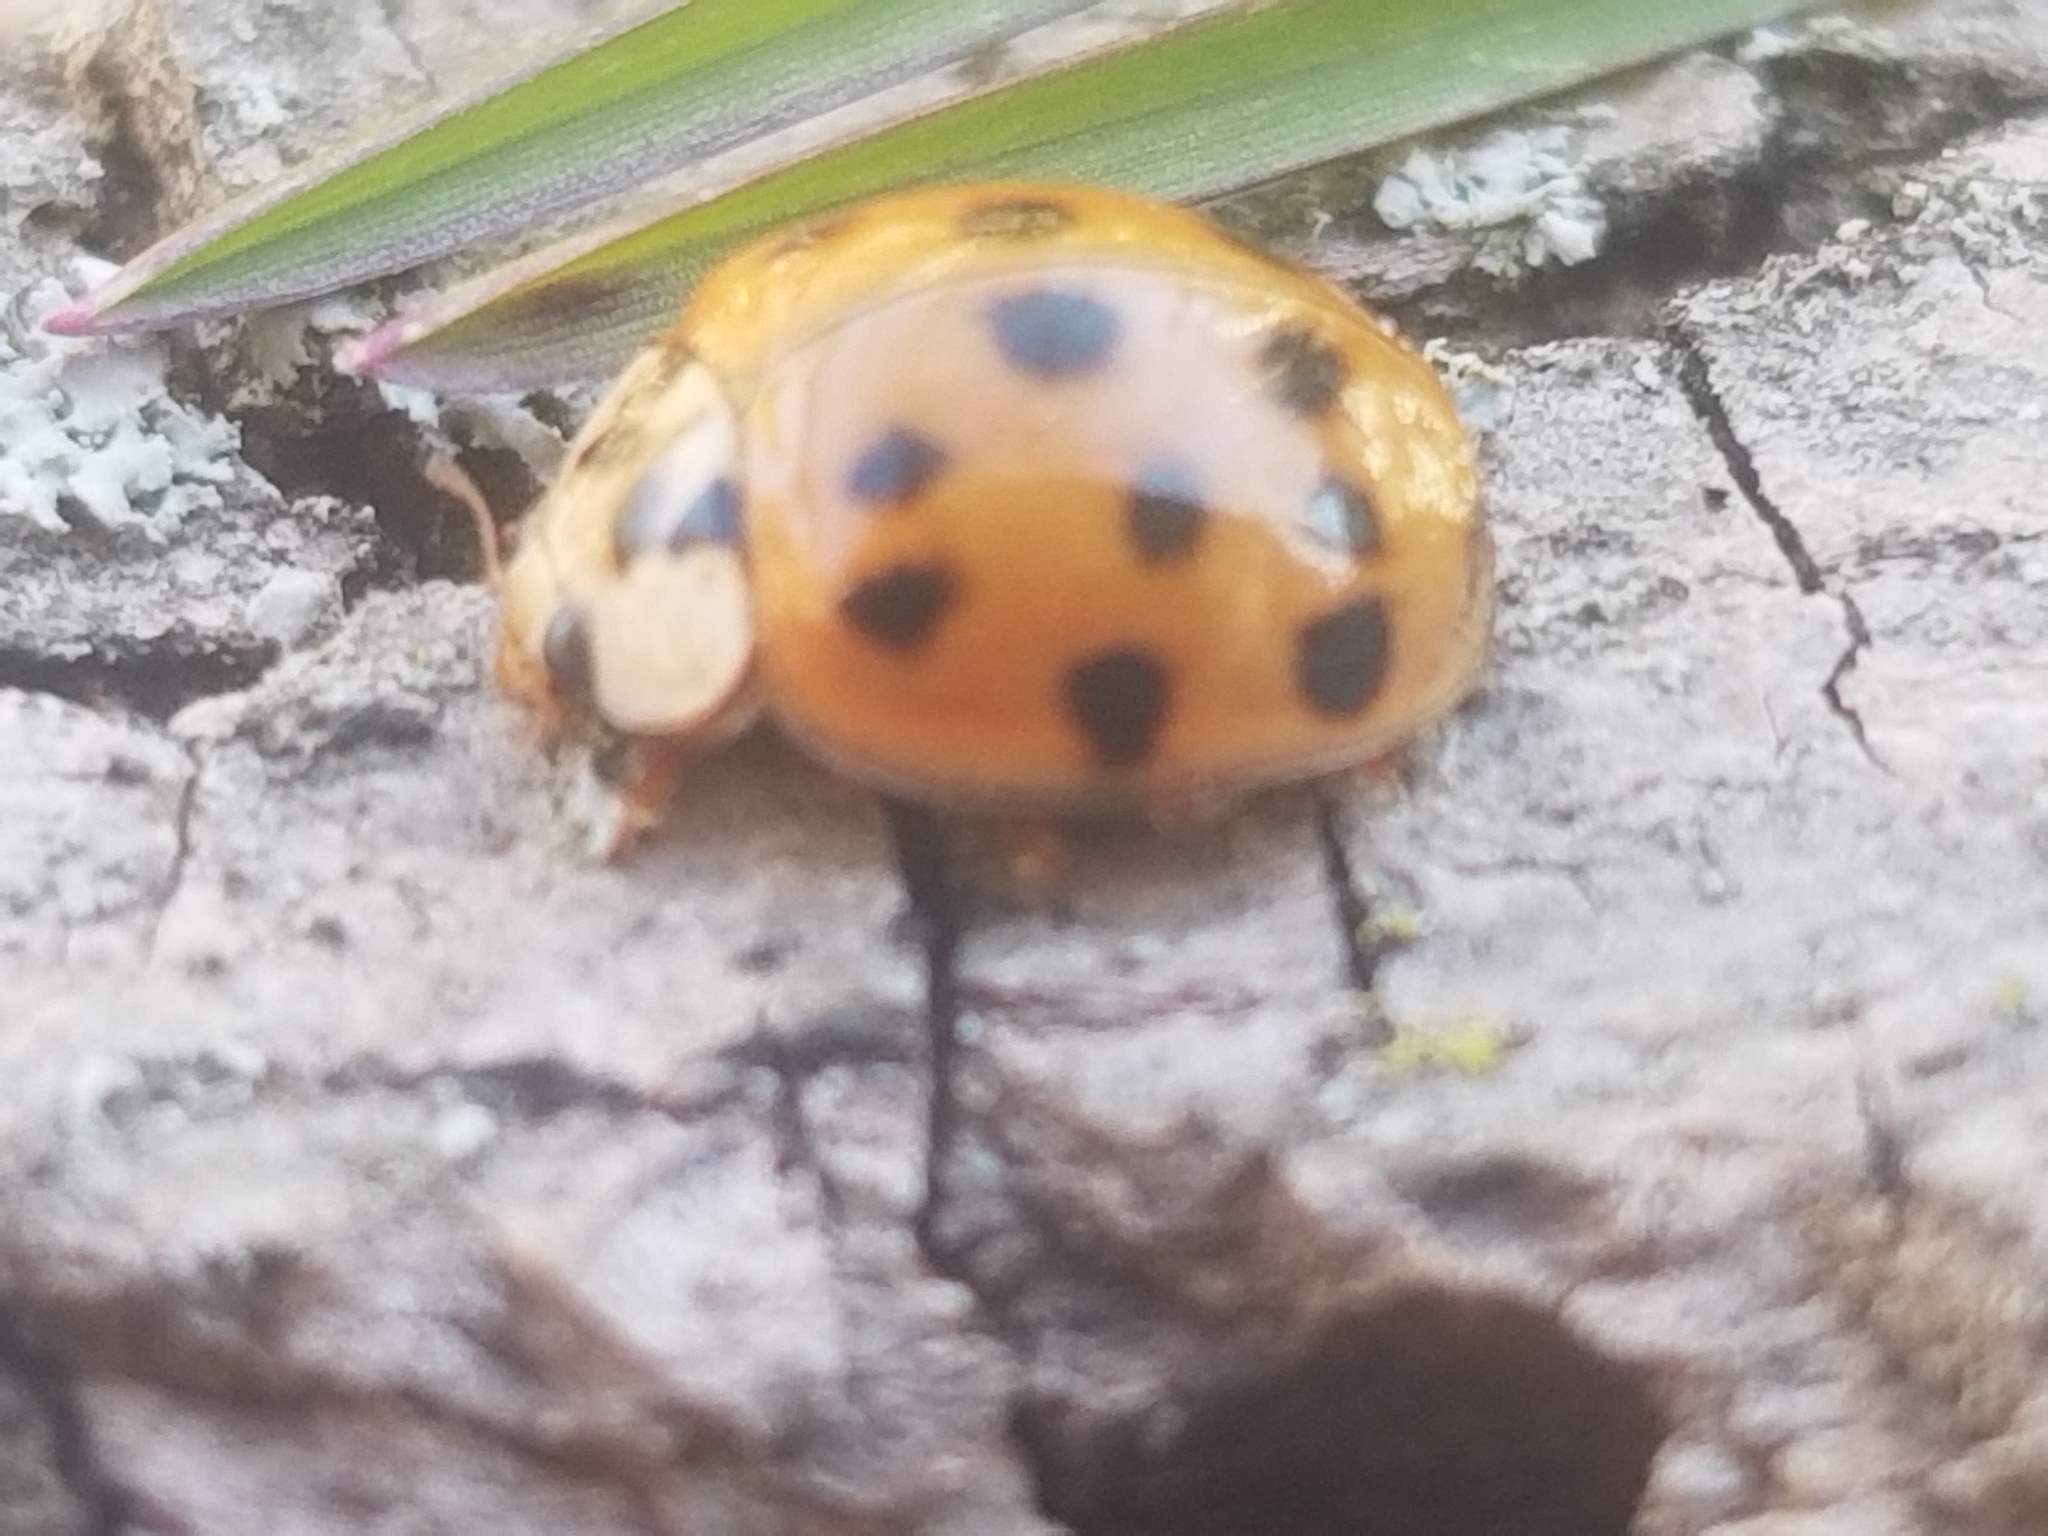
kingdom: Animalia
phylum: Arthropoda
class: Insecta
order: Coleoptera
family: Coccinellidae
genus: Harmonia
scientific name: Harmonia axyridis
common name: Harlequin ladybird
